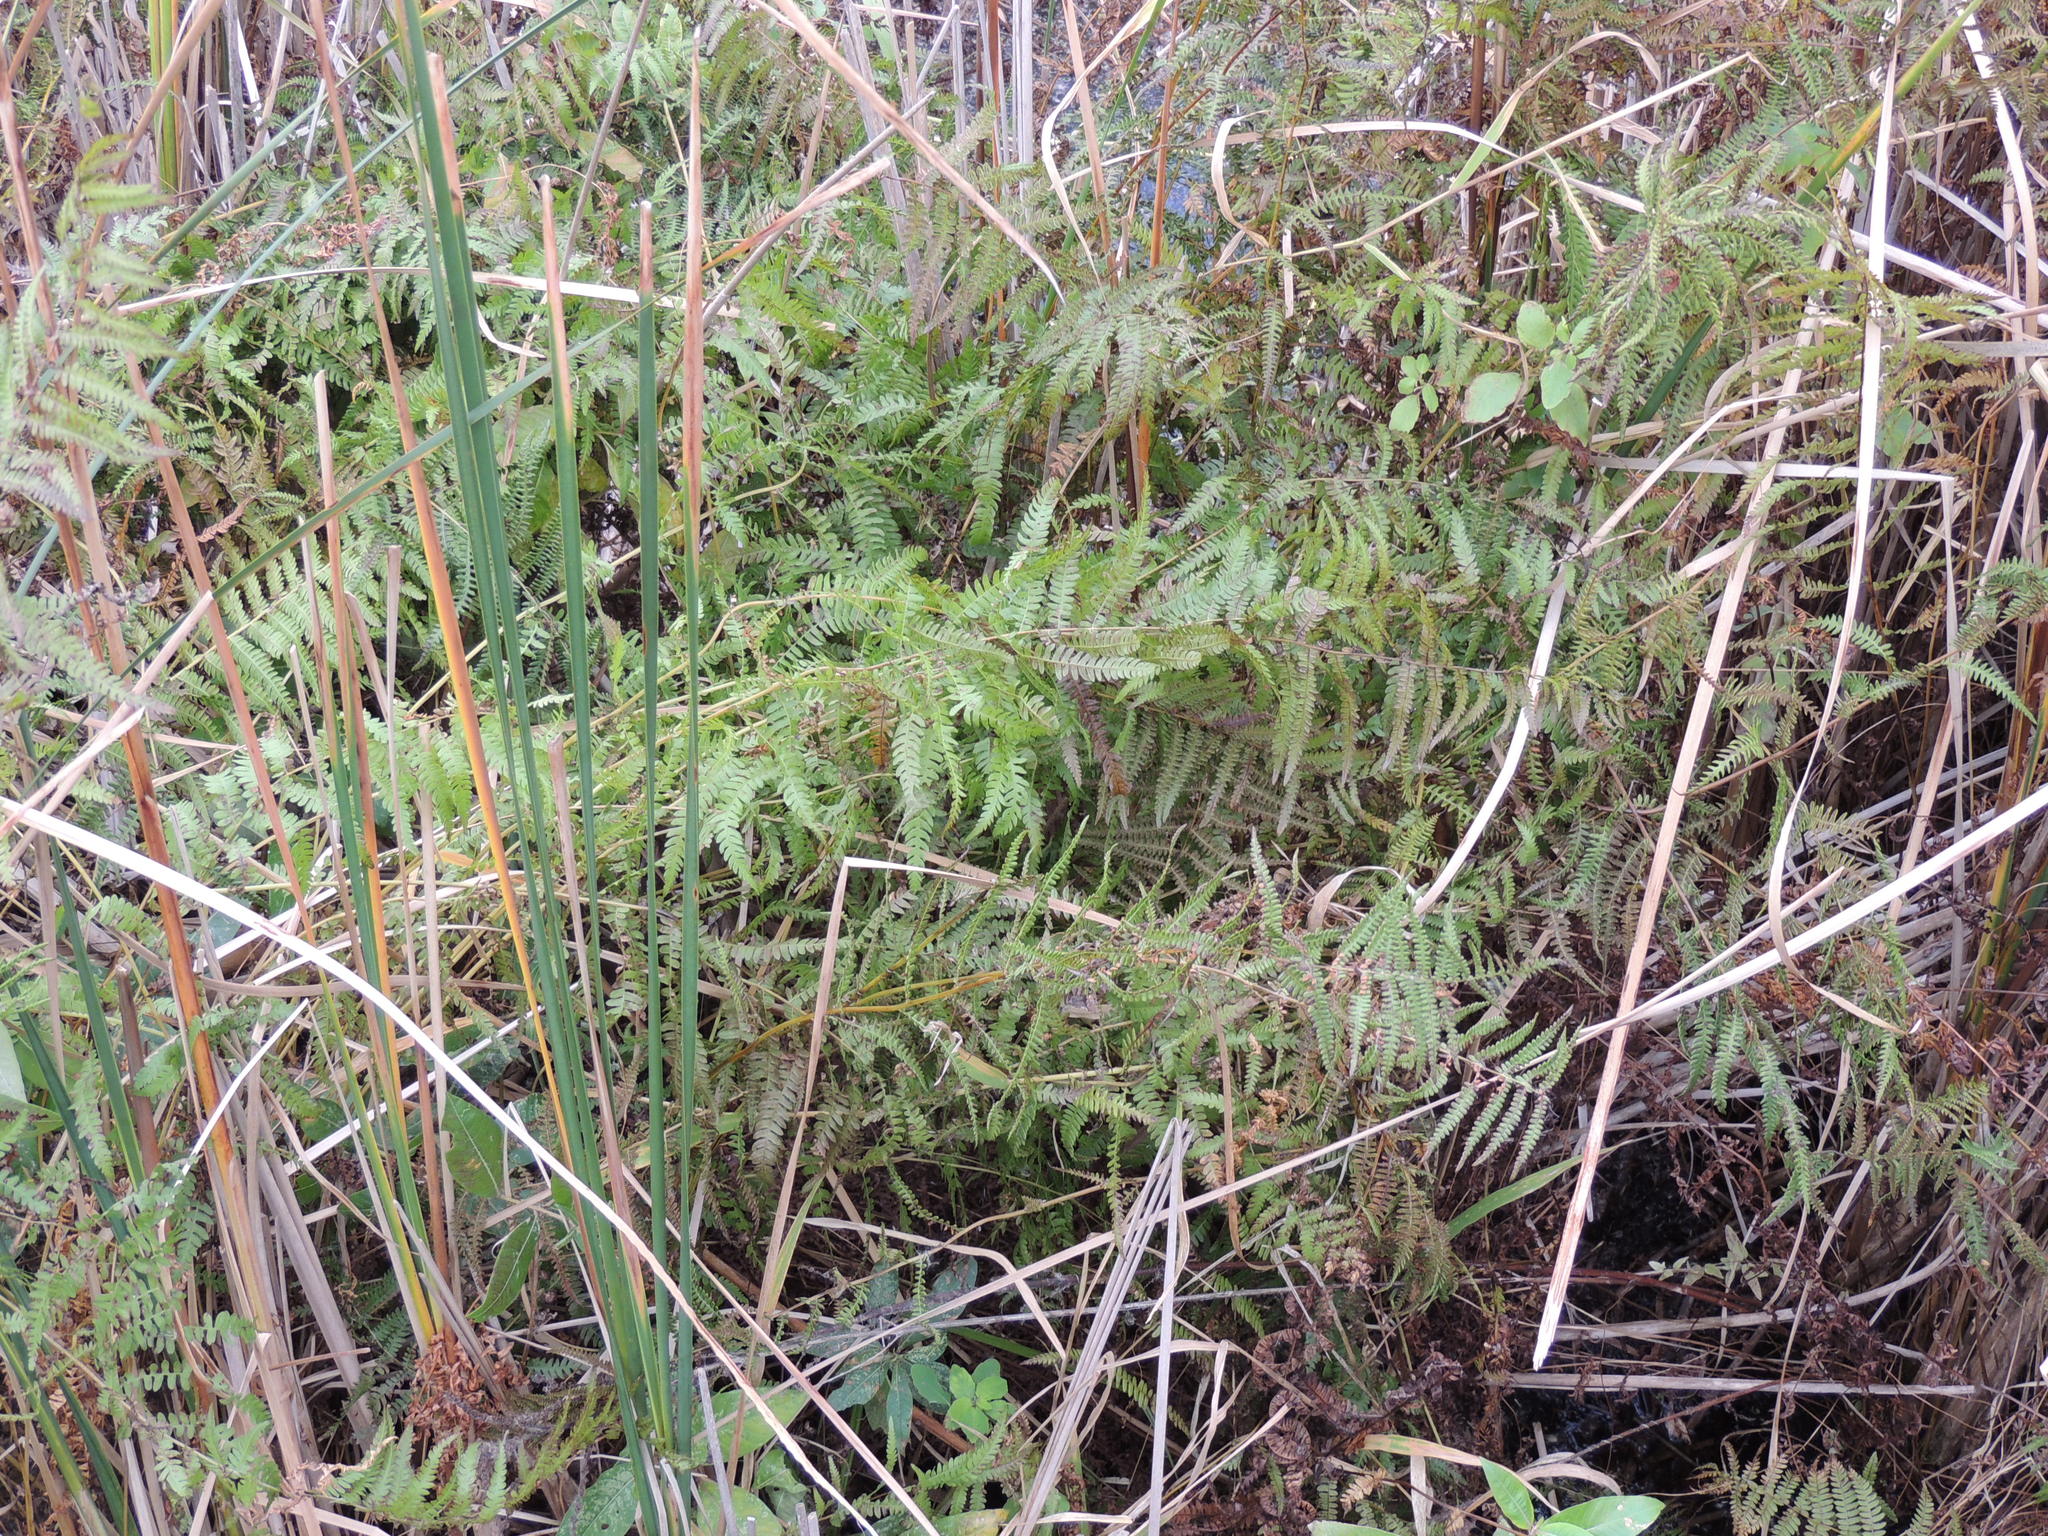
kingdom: Plantae
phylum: Tracheophyta
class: Polypodiopsida
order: Polypodiales
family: Thelypteridaceae
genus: Thelypteris
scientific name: Thelypteris palustris
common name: Marsh fern
